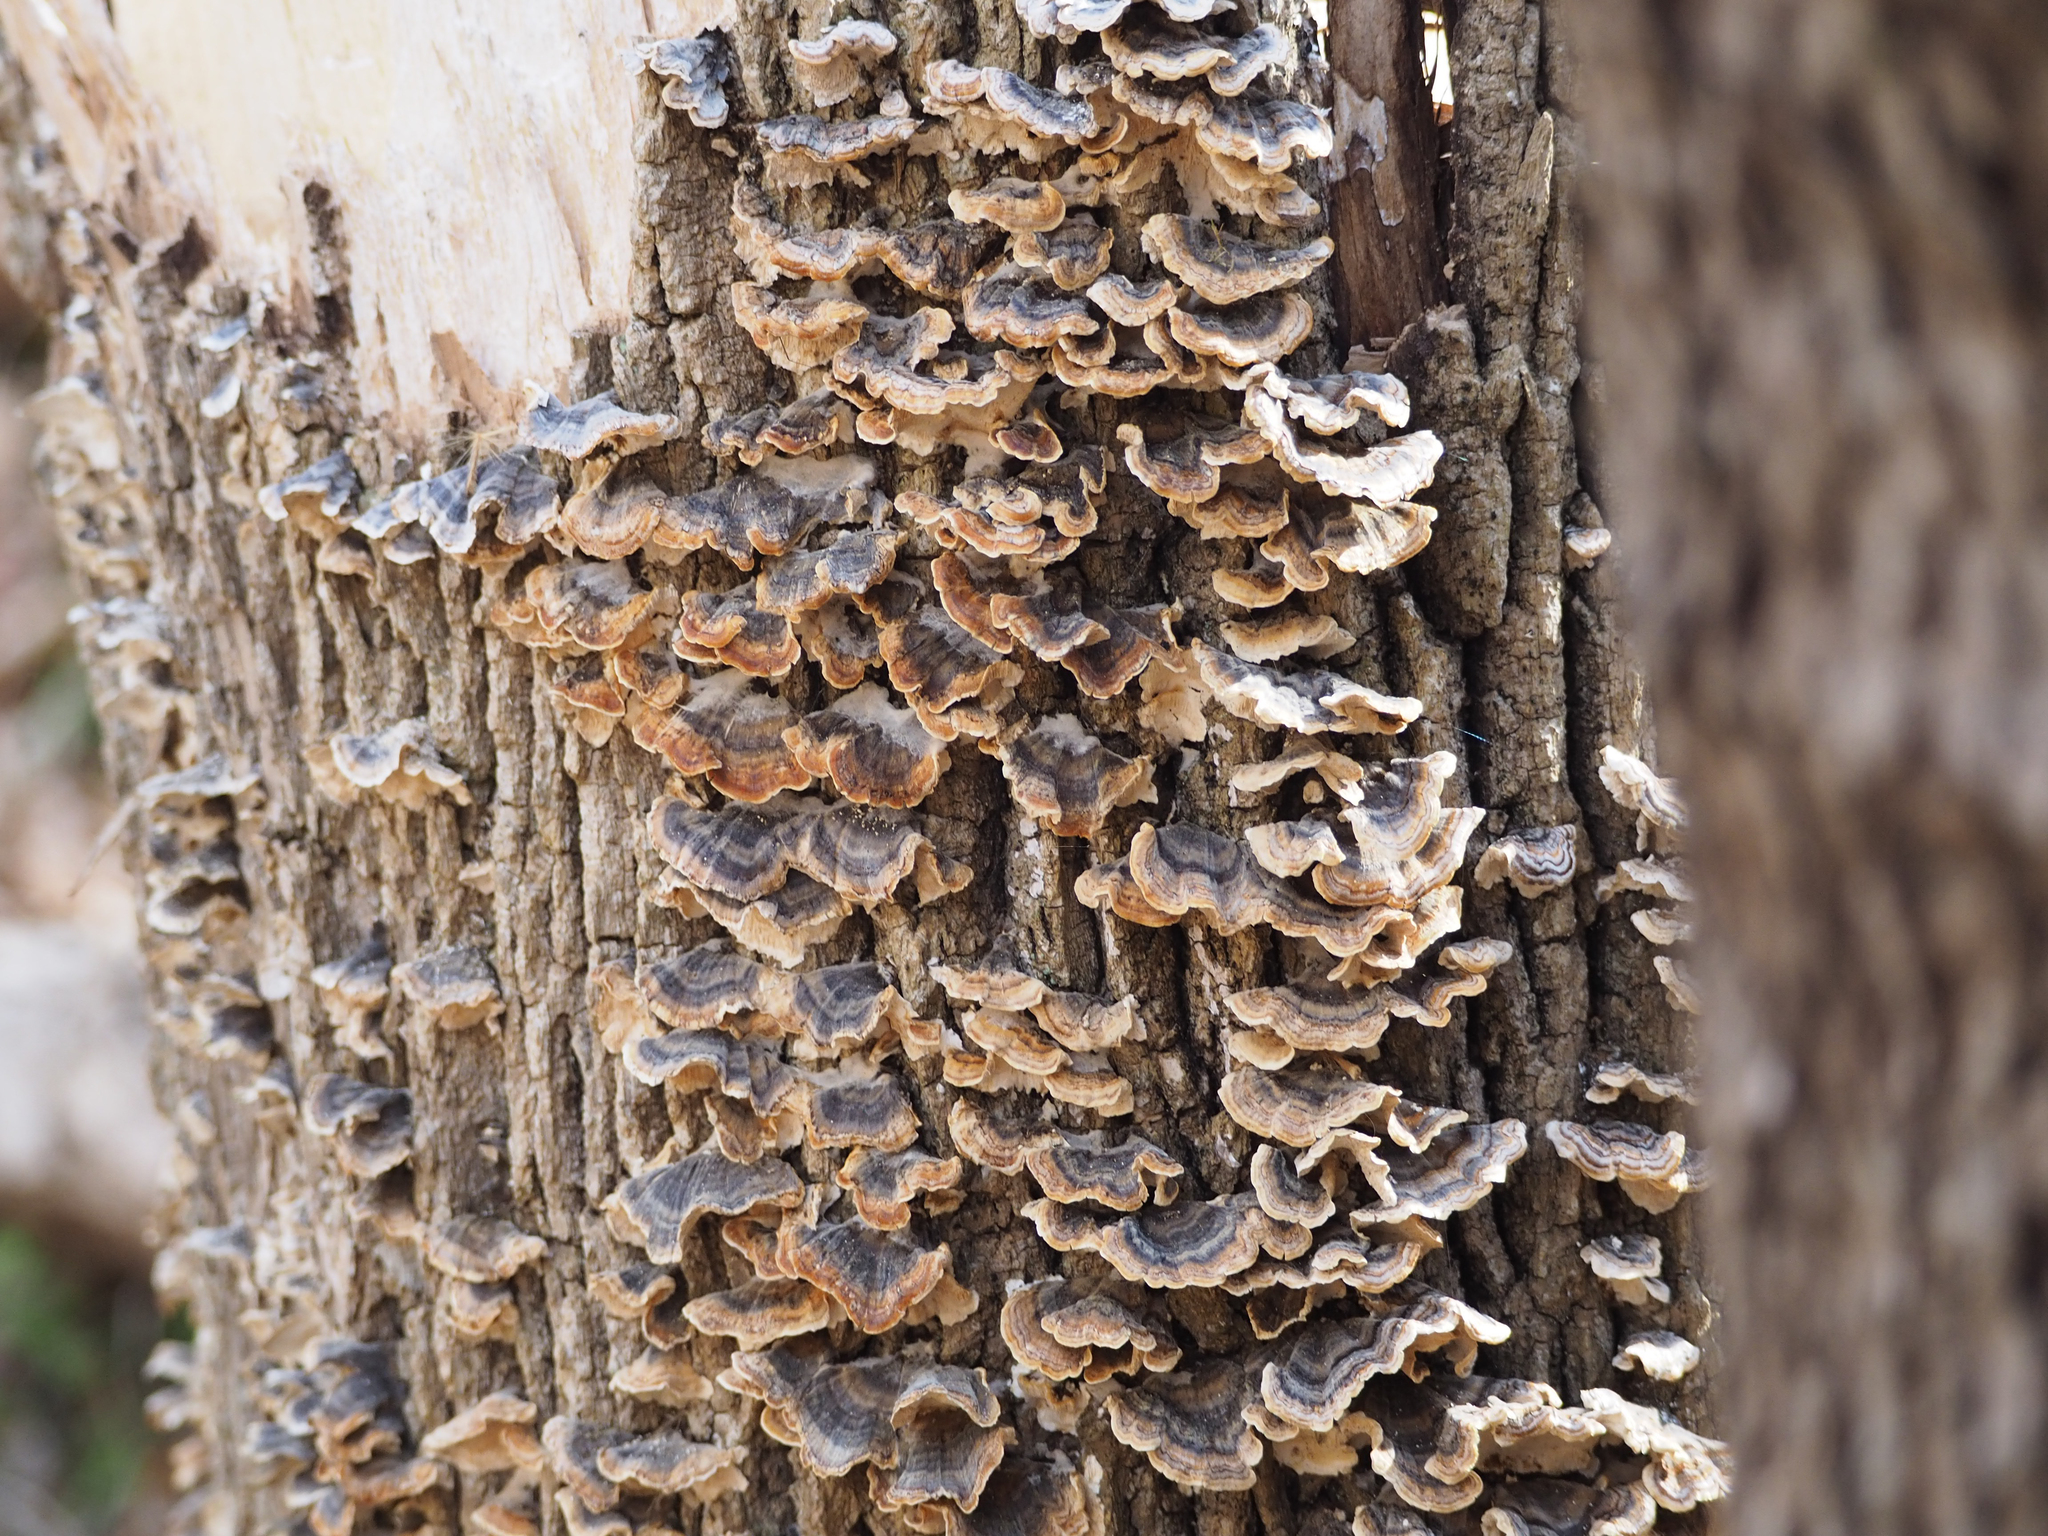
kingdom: Fungi
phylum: Basidiomycota
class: Agaricomycetes
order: Polyporales
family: Polyporaceae
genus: Trametes
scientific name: Trametes versicolor
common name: Turkeytail
